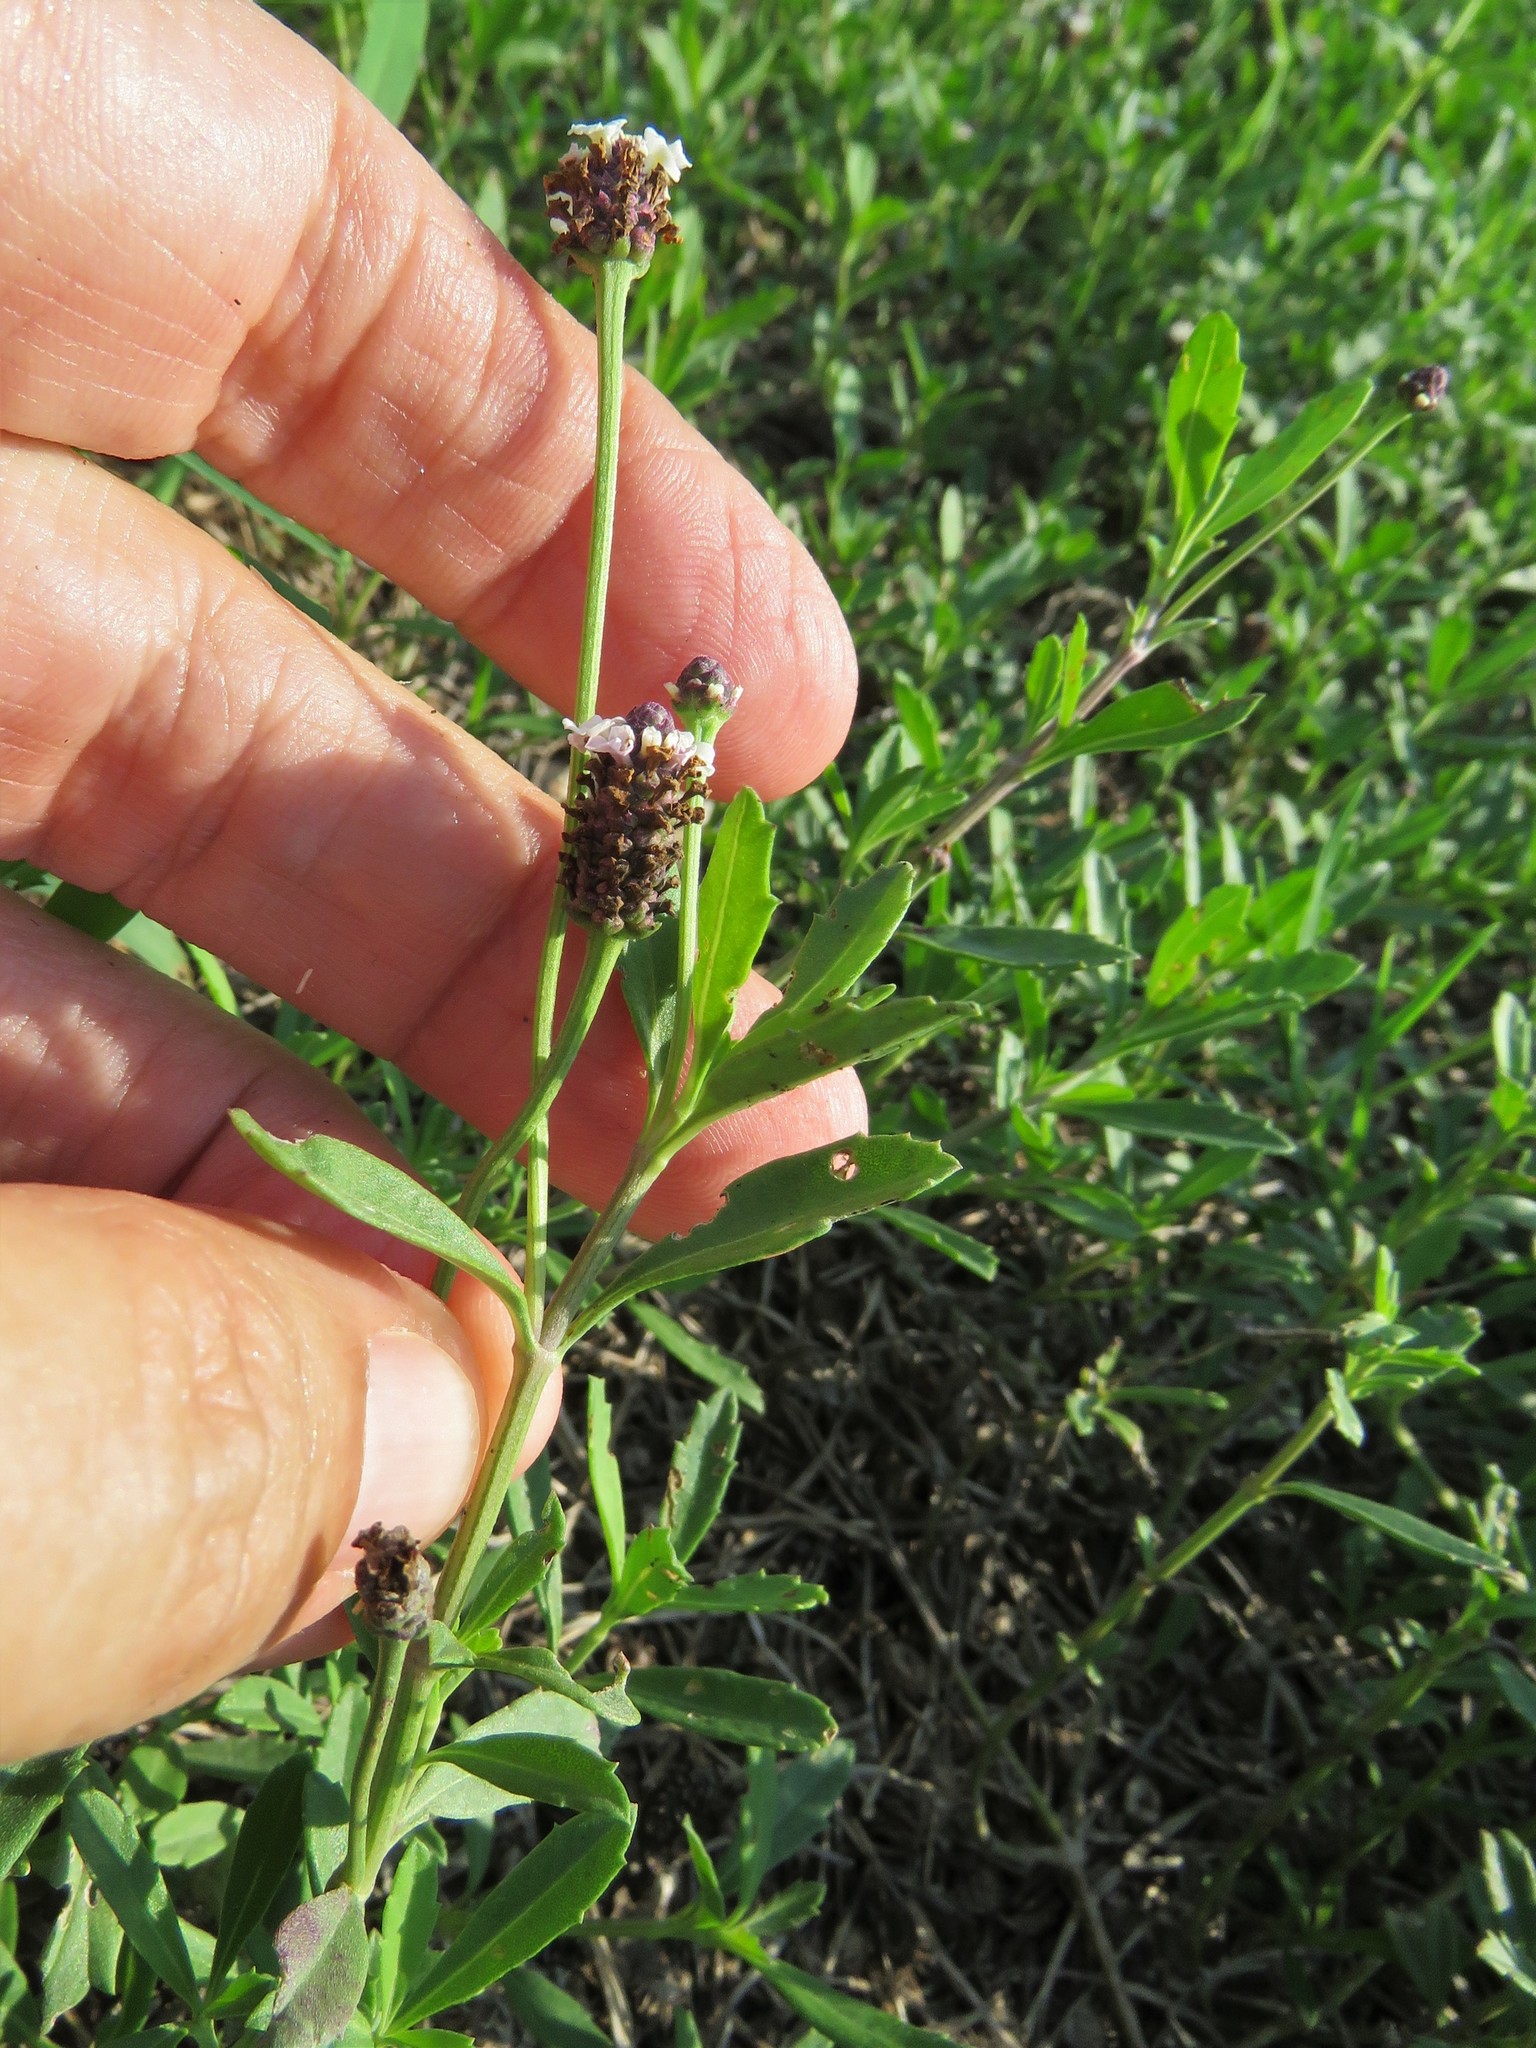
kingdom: Plantae
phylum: Tracheophyta
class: Magnoliopsida
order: Lamiales
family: Verbenaceae
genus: Phyla
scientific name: Phyla nodiflora
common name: Frogfruit
